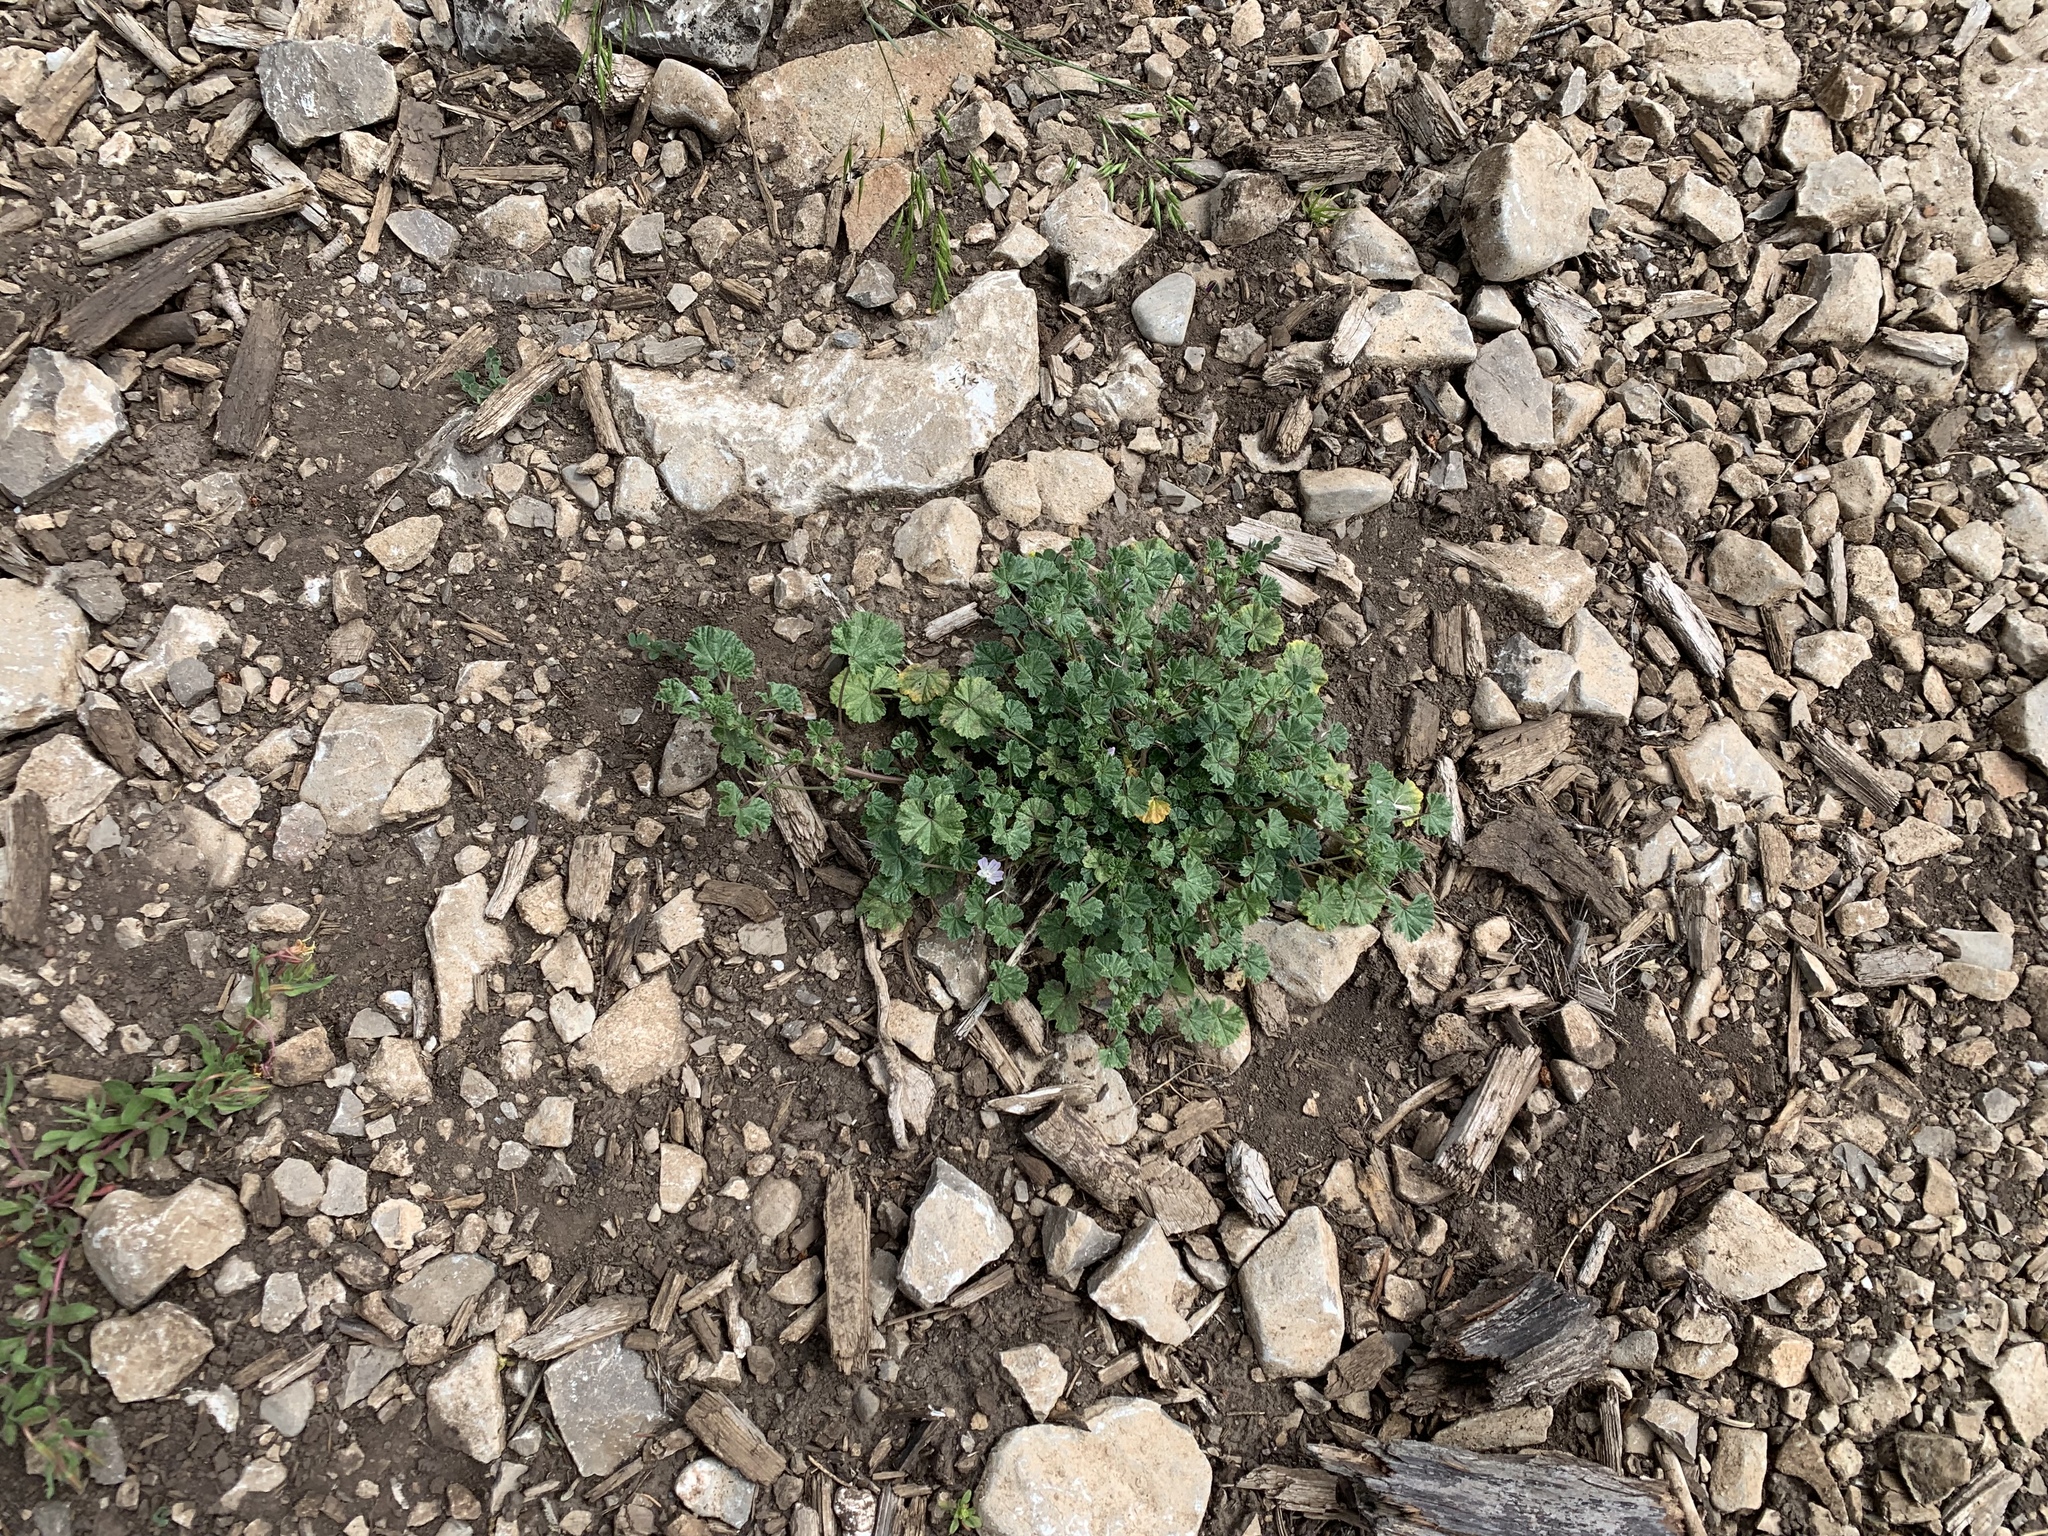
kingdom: Plantae
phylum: Tracheophyta
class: Magnoliopsida
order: Malvales
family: Malvaceae
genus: Malva
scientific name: Malva neglecta
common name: Common mallow
